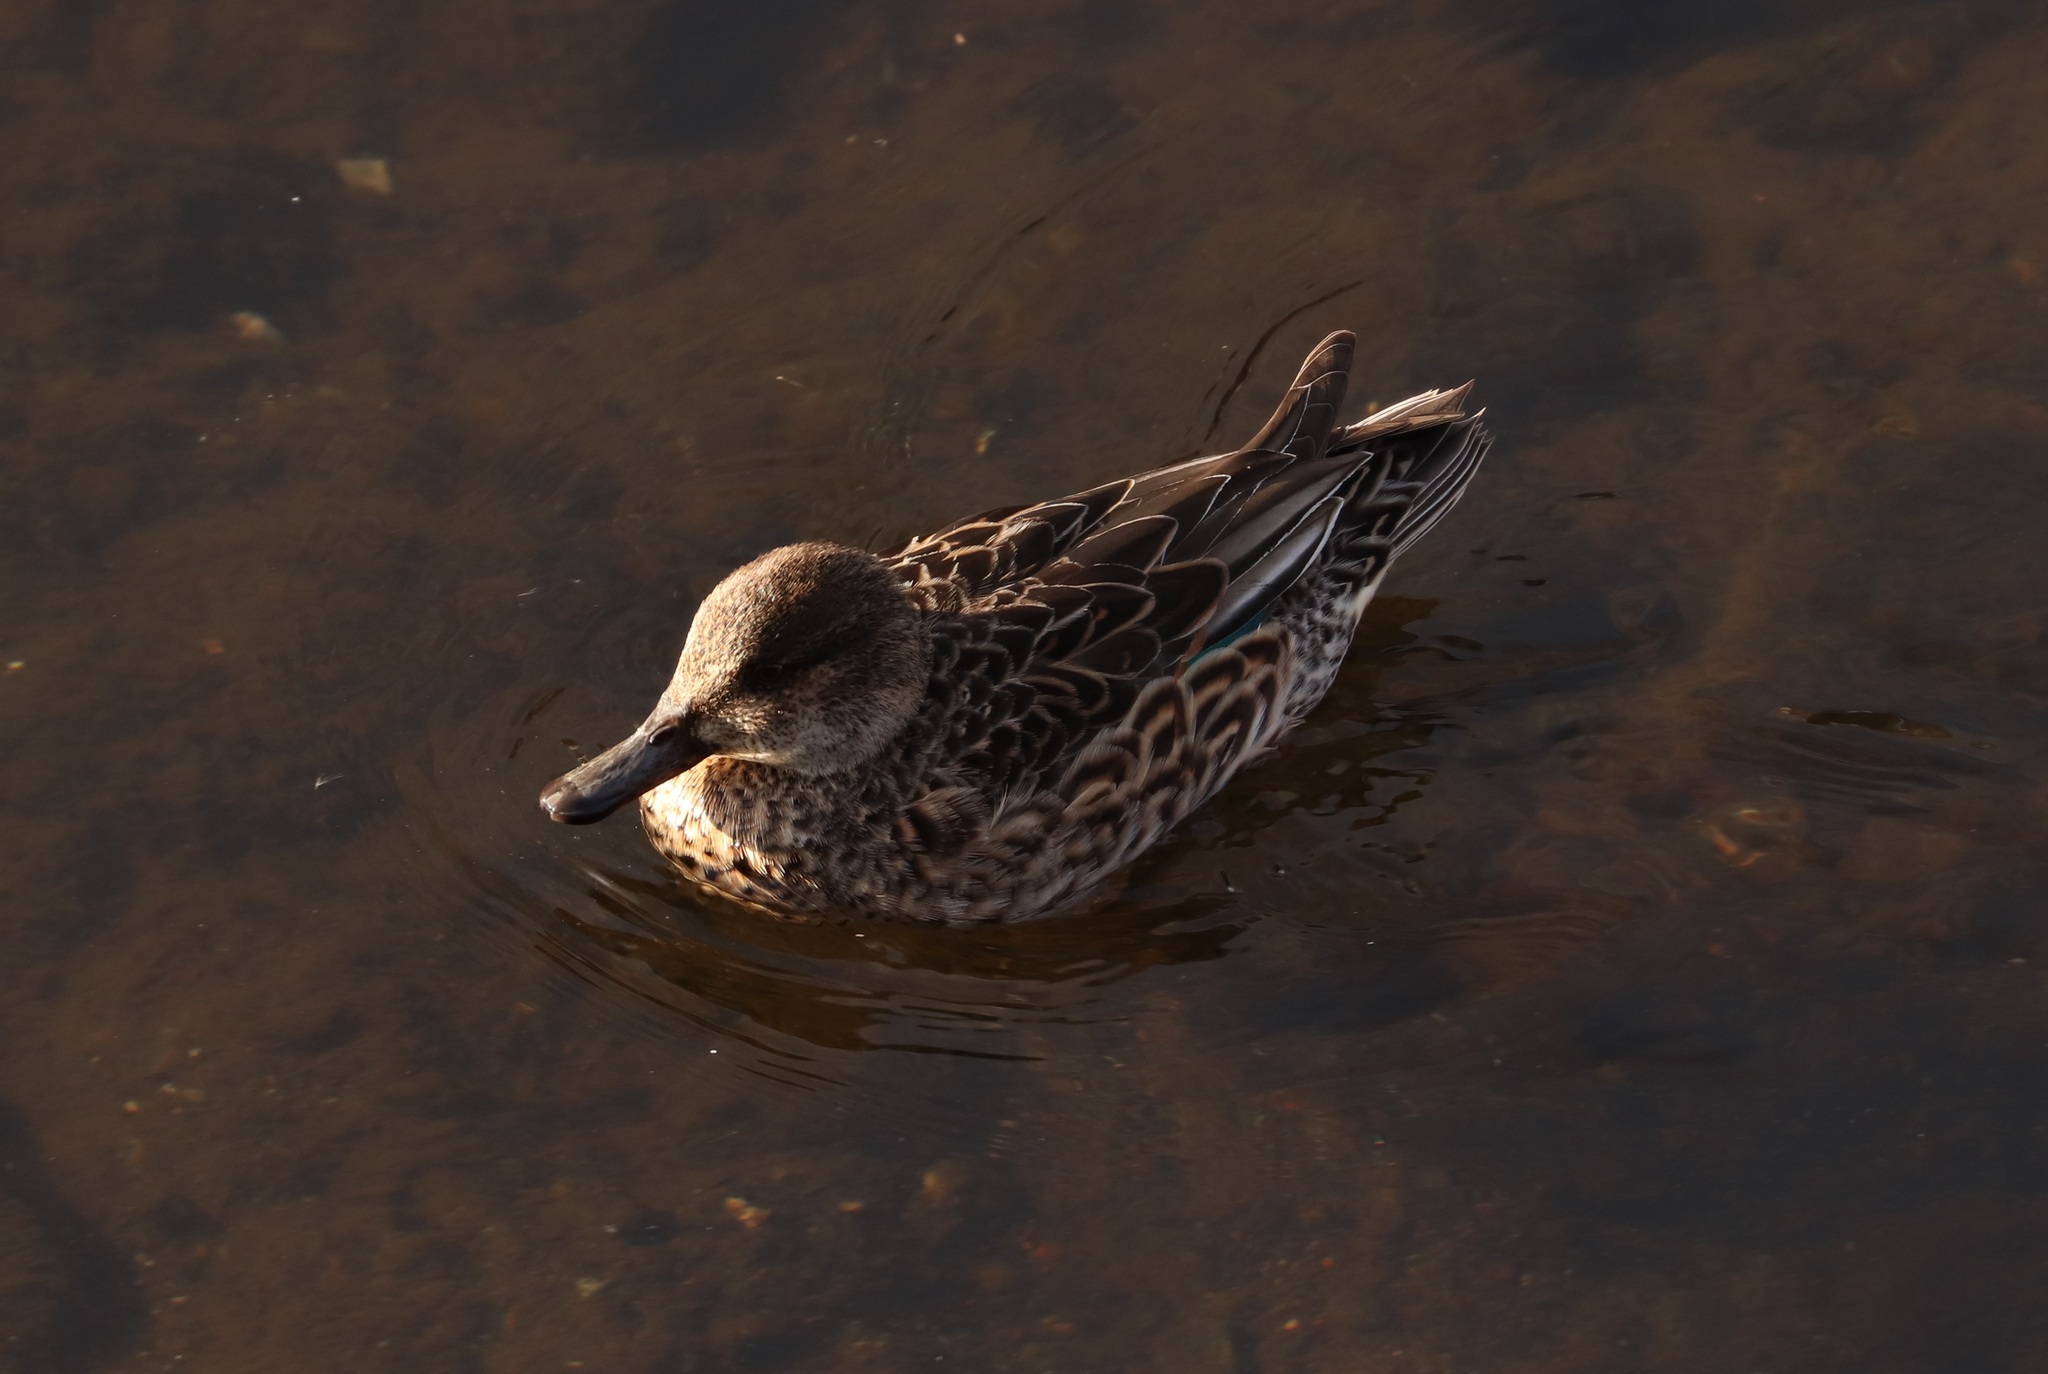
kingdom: Animalia
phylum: Chordata
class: Aves
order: Anseriformes
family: Anatidae
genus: Anas
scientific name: Anas crecca
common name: Eurasian teal
